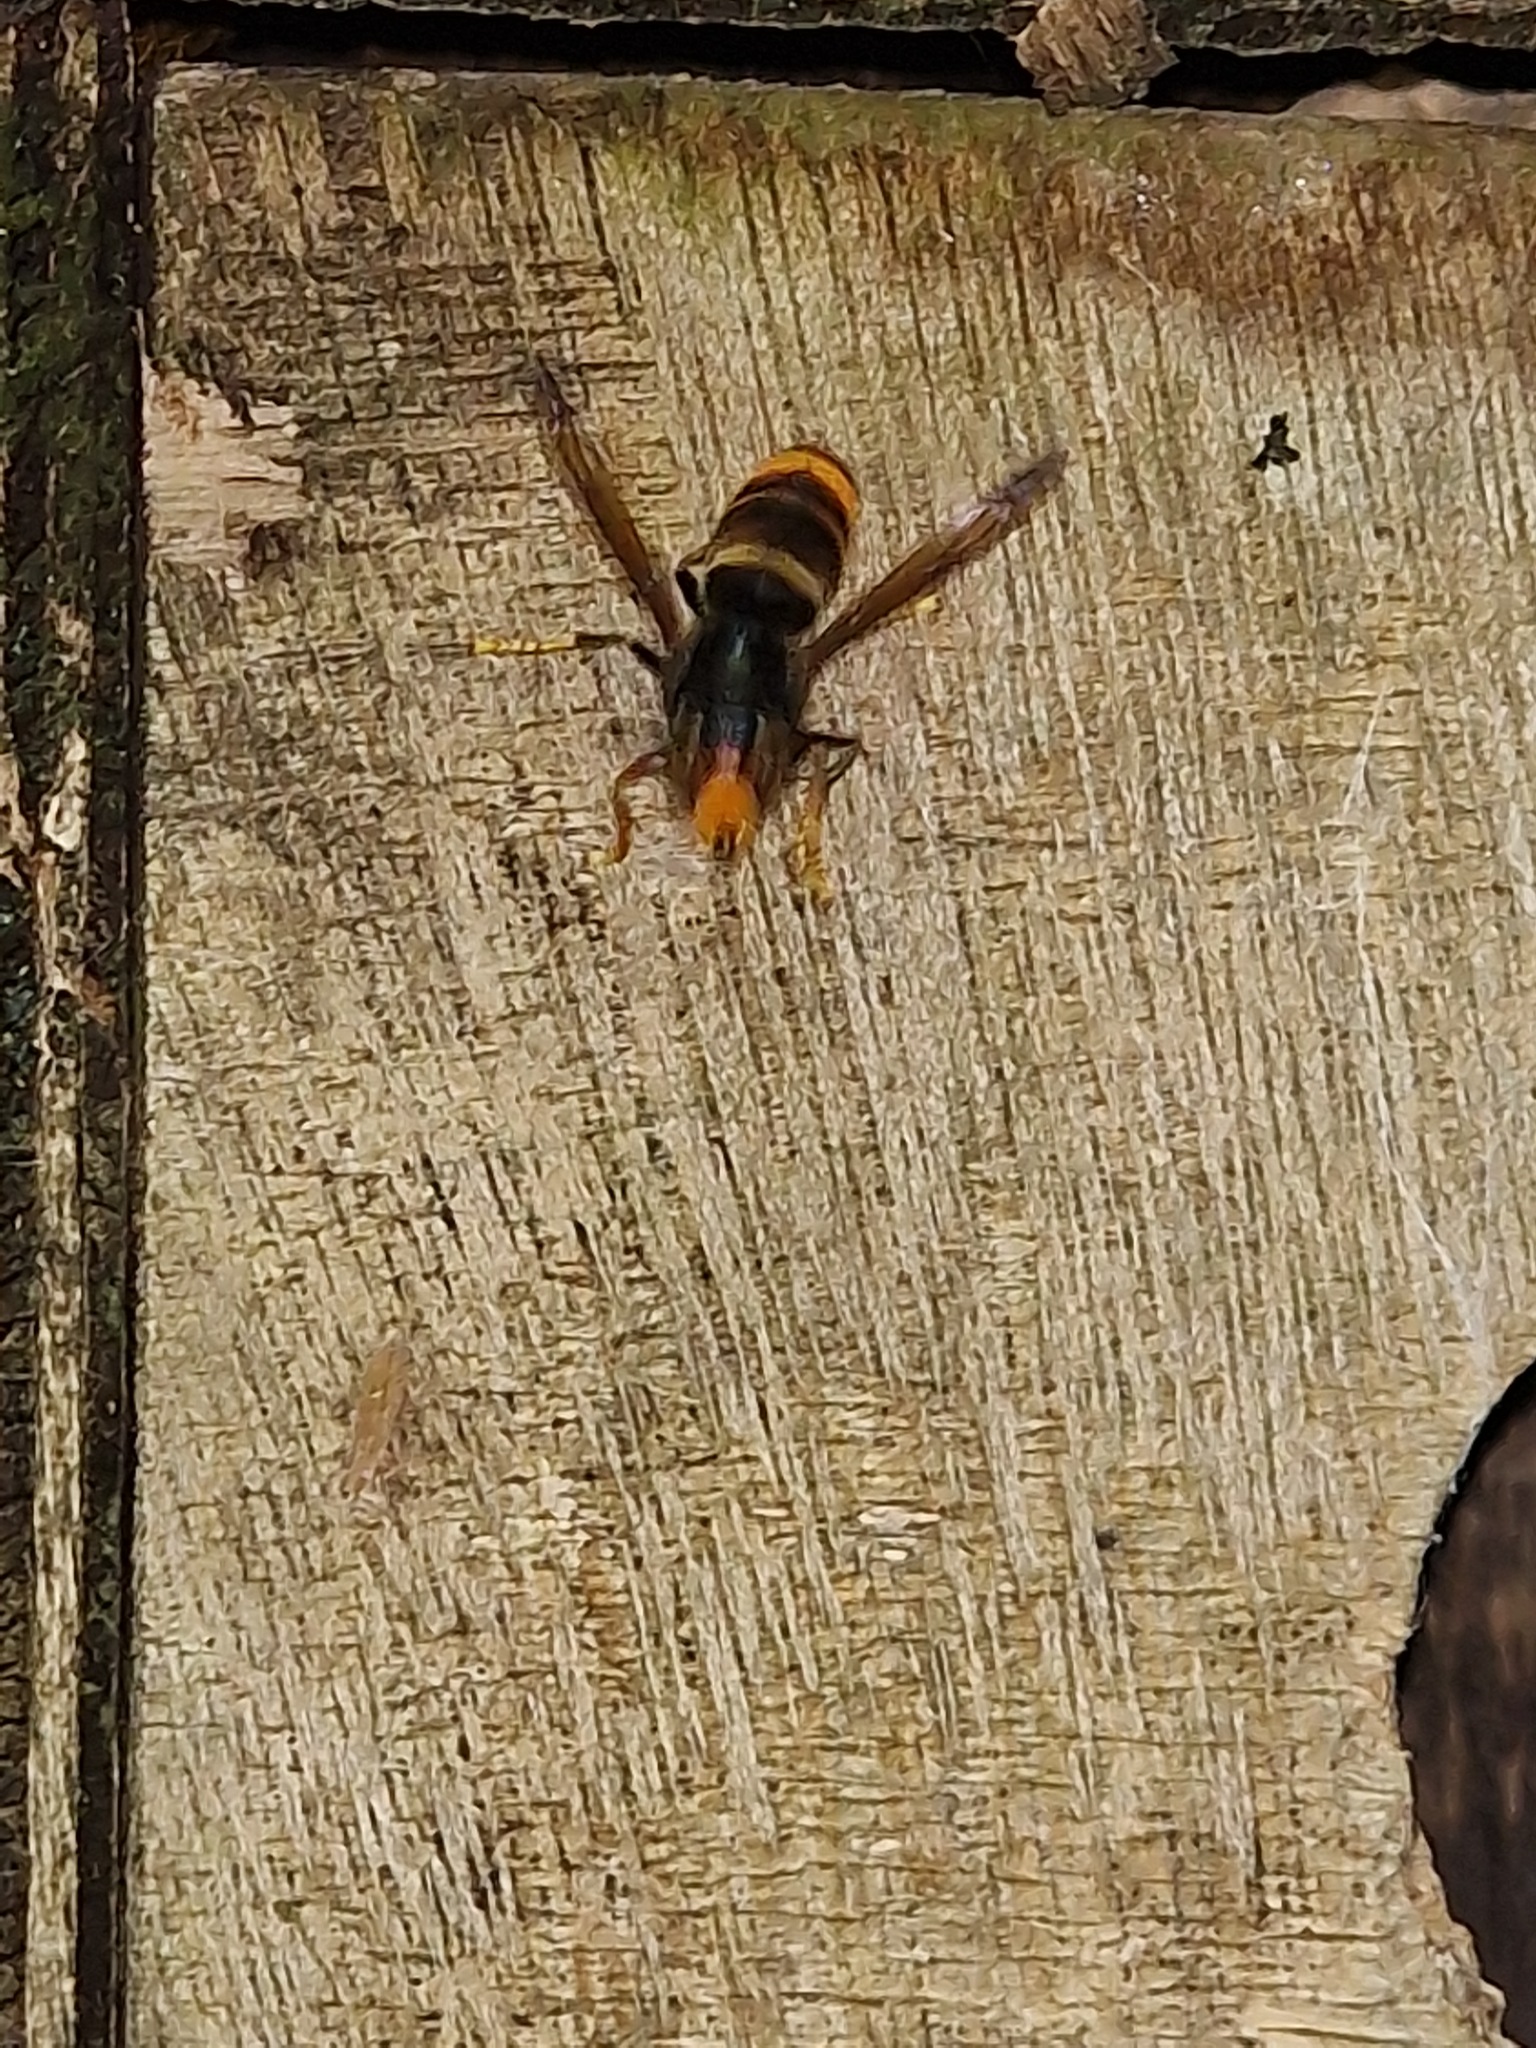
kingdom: Animalia
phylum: Arthropoda
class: Insecta
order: Hymenoptera
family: Vespidae
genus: Vespa
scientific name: Vespa velutina
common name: Asian hornet
